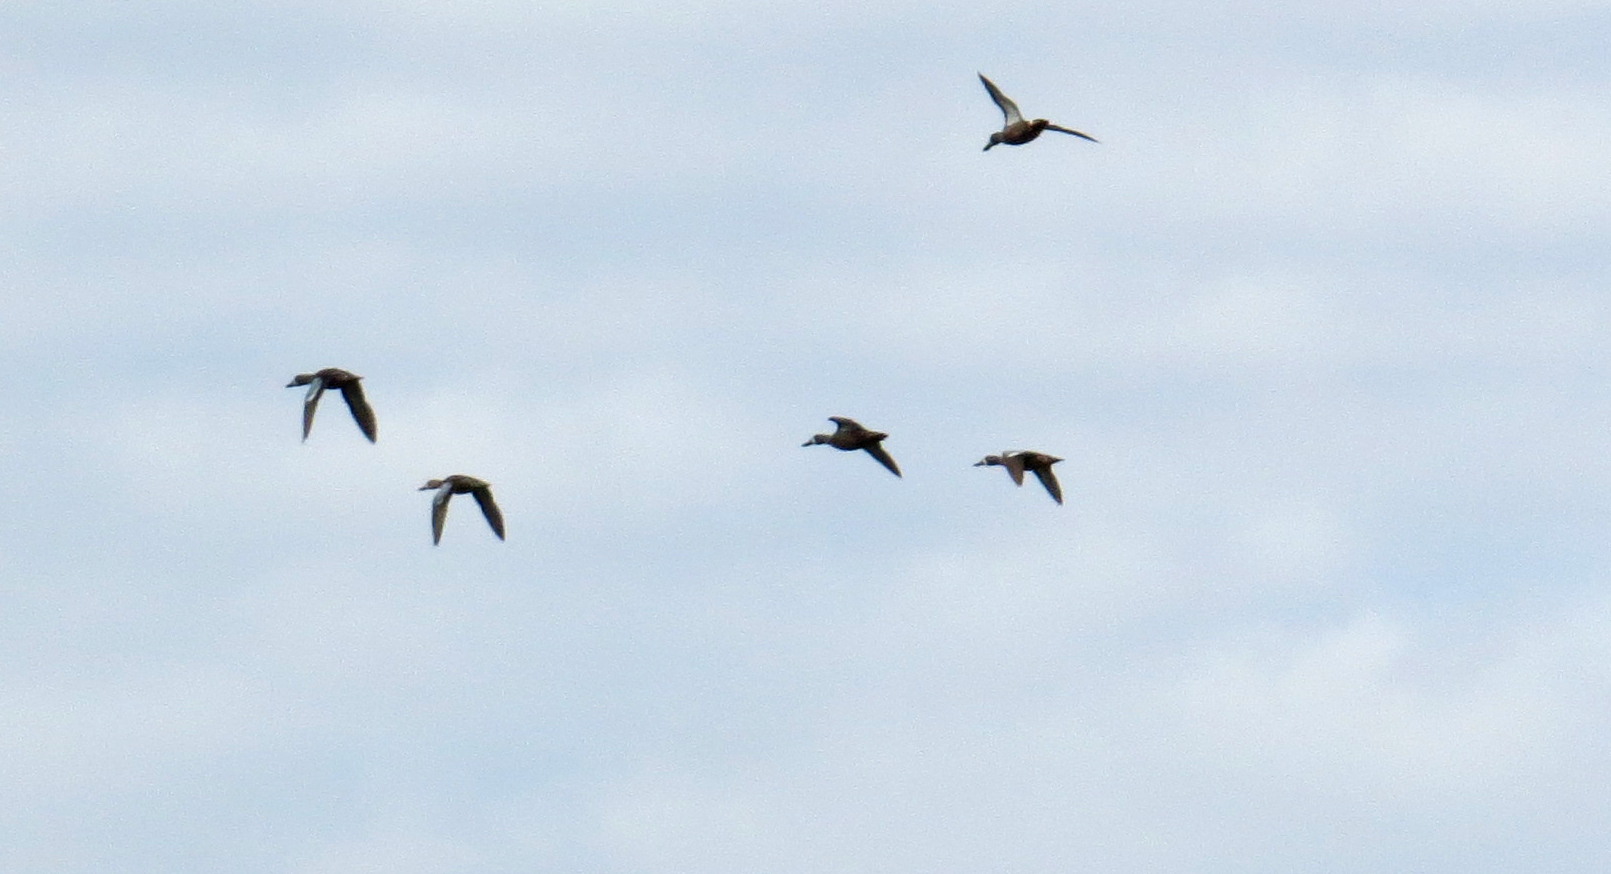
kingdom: Animalia
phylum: Chordata
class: Aves
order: Anseriformes
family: Anatidae
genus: Spatula
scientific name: Spatula discors
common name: Blue-winged teal
